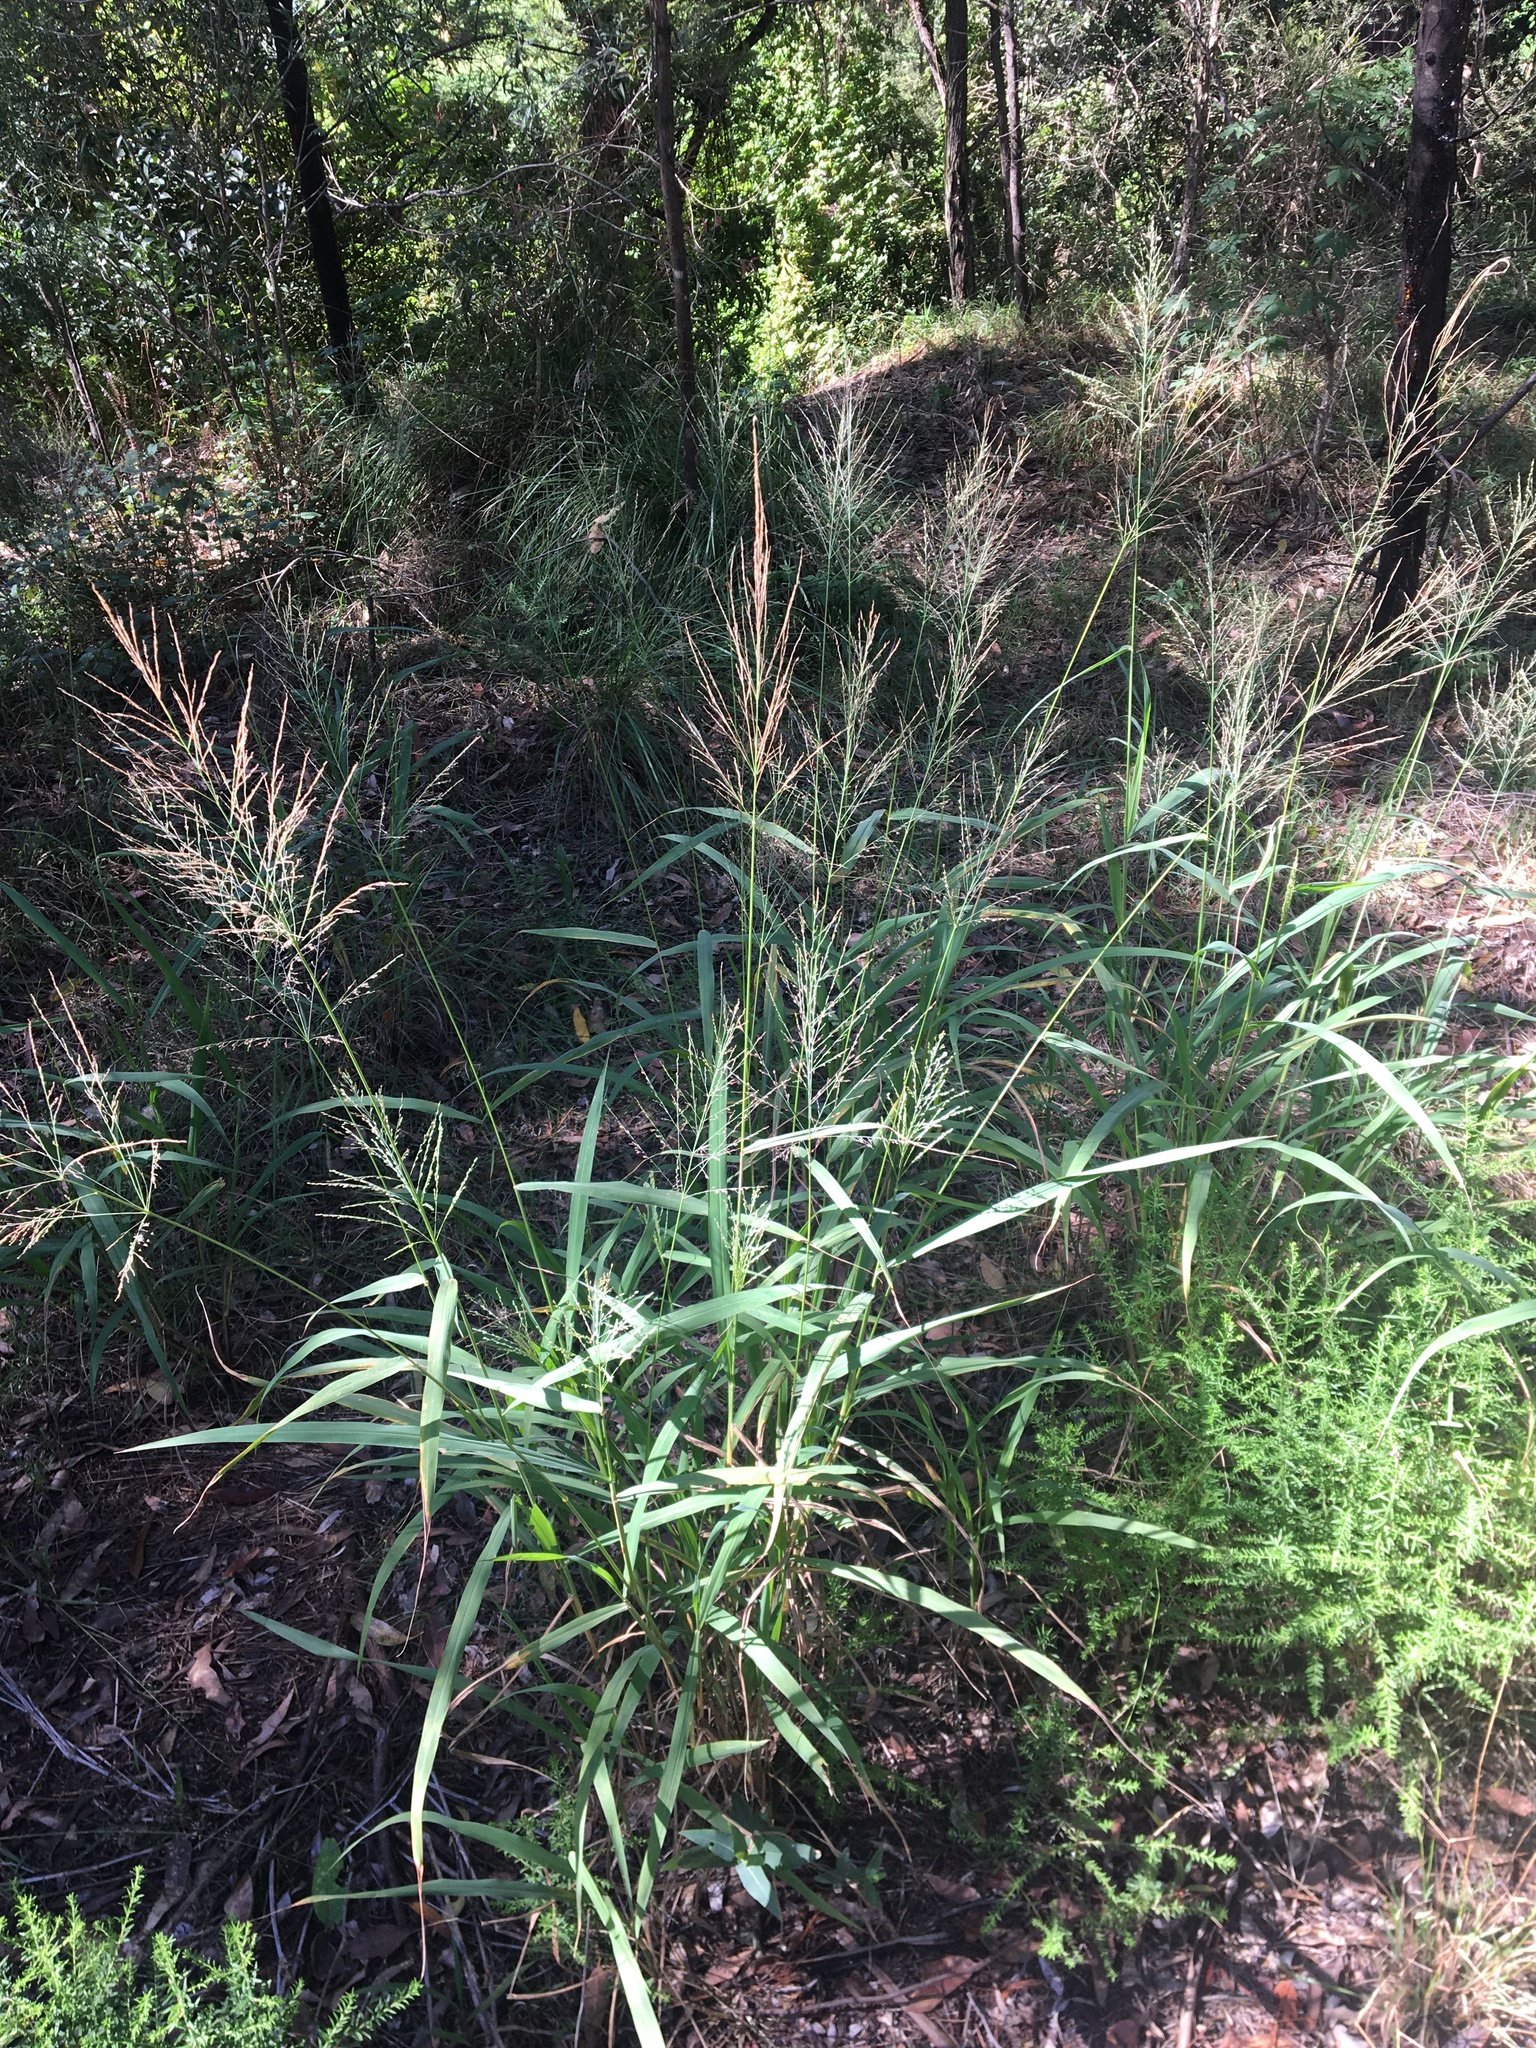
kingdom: Plantae
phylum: Tracheophyta
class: Liliopsida
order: Poales
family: Poaceae
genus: Megathyrsus
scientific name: Megathyrsus maximus
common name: Guineagrass
